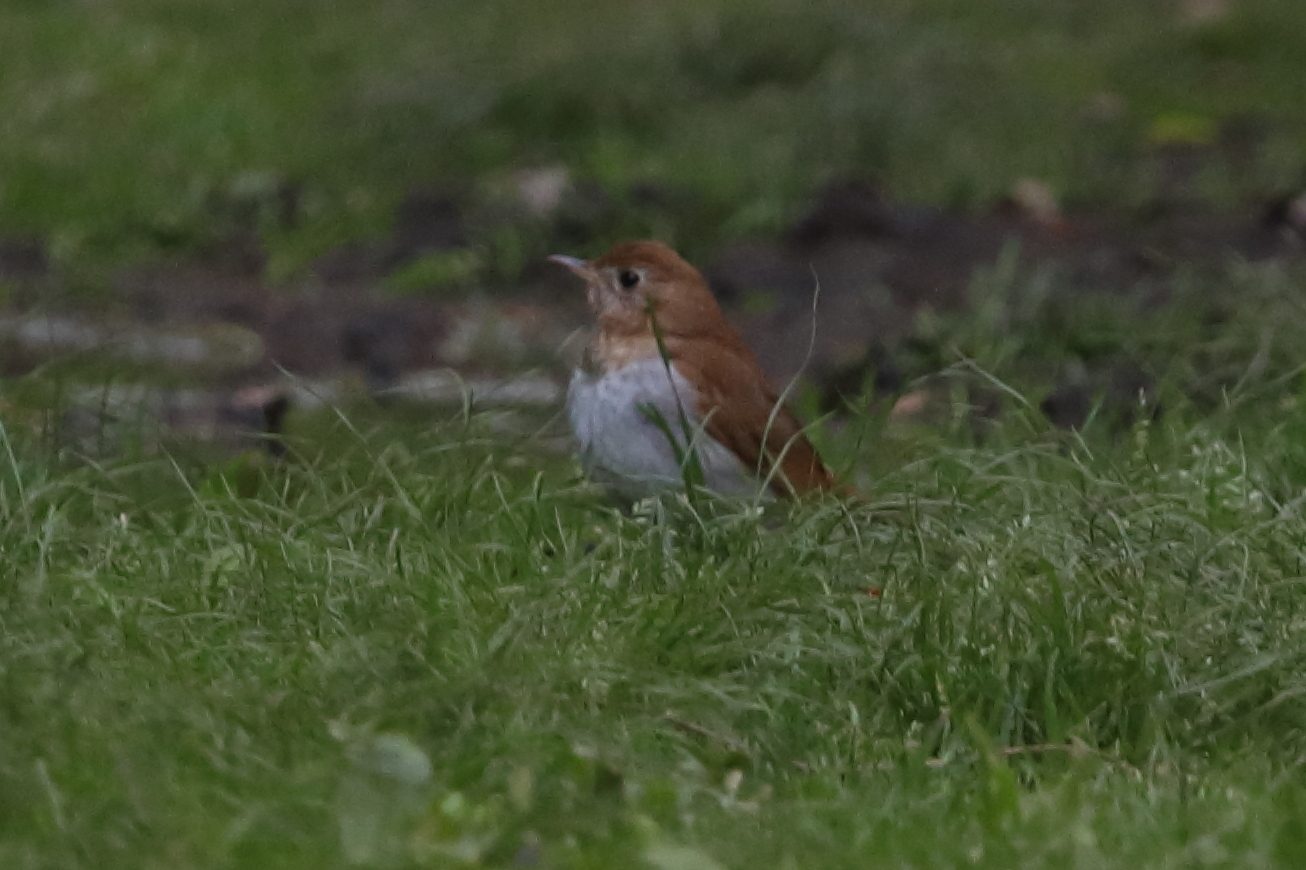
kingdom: Animalia
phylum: Chordata
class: Aves
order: Passeriformes
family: Turdidae
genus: Catharus
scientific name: Catharus fuscescens
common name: Veery
